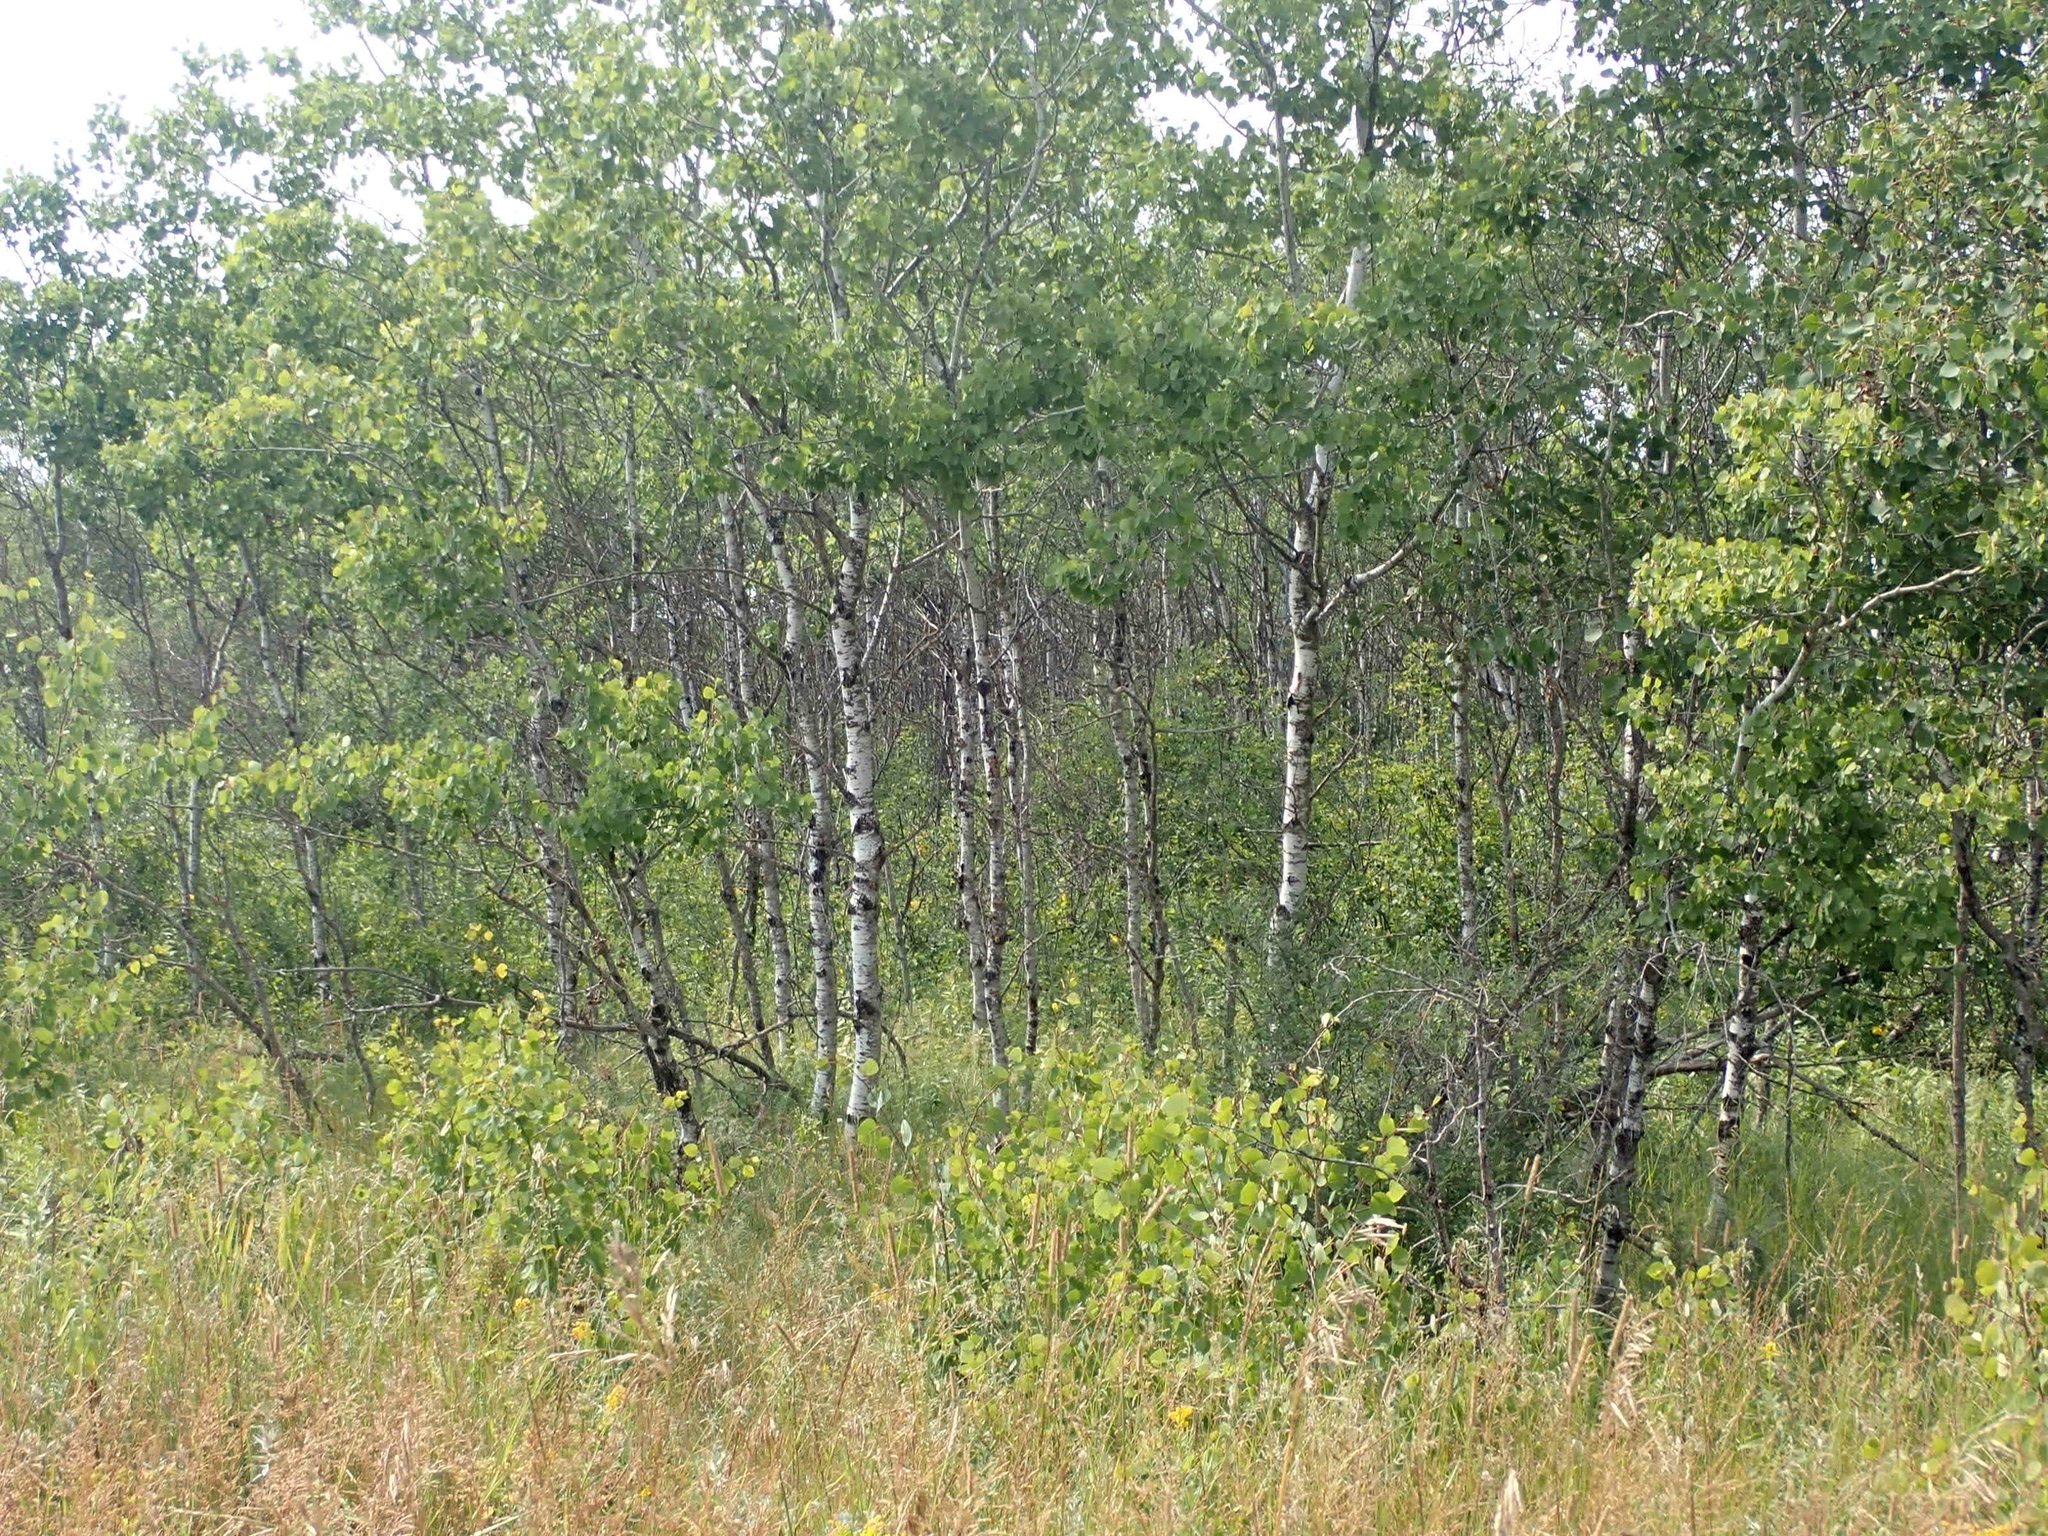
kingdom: Plantae
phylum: Tracheophyta
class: Magnoliopsida
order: Malpighiales
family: Salicaceae
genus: Populus
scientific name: Populus tremuloides
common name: Quaking aspen
